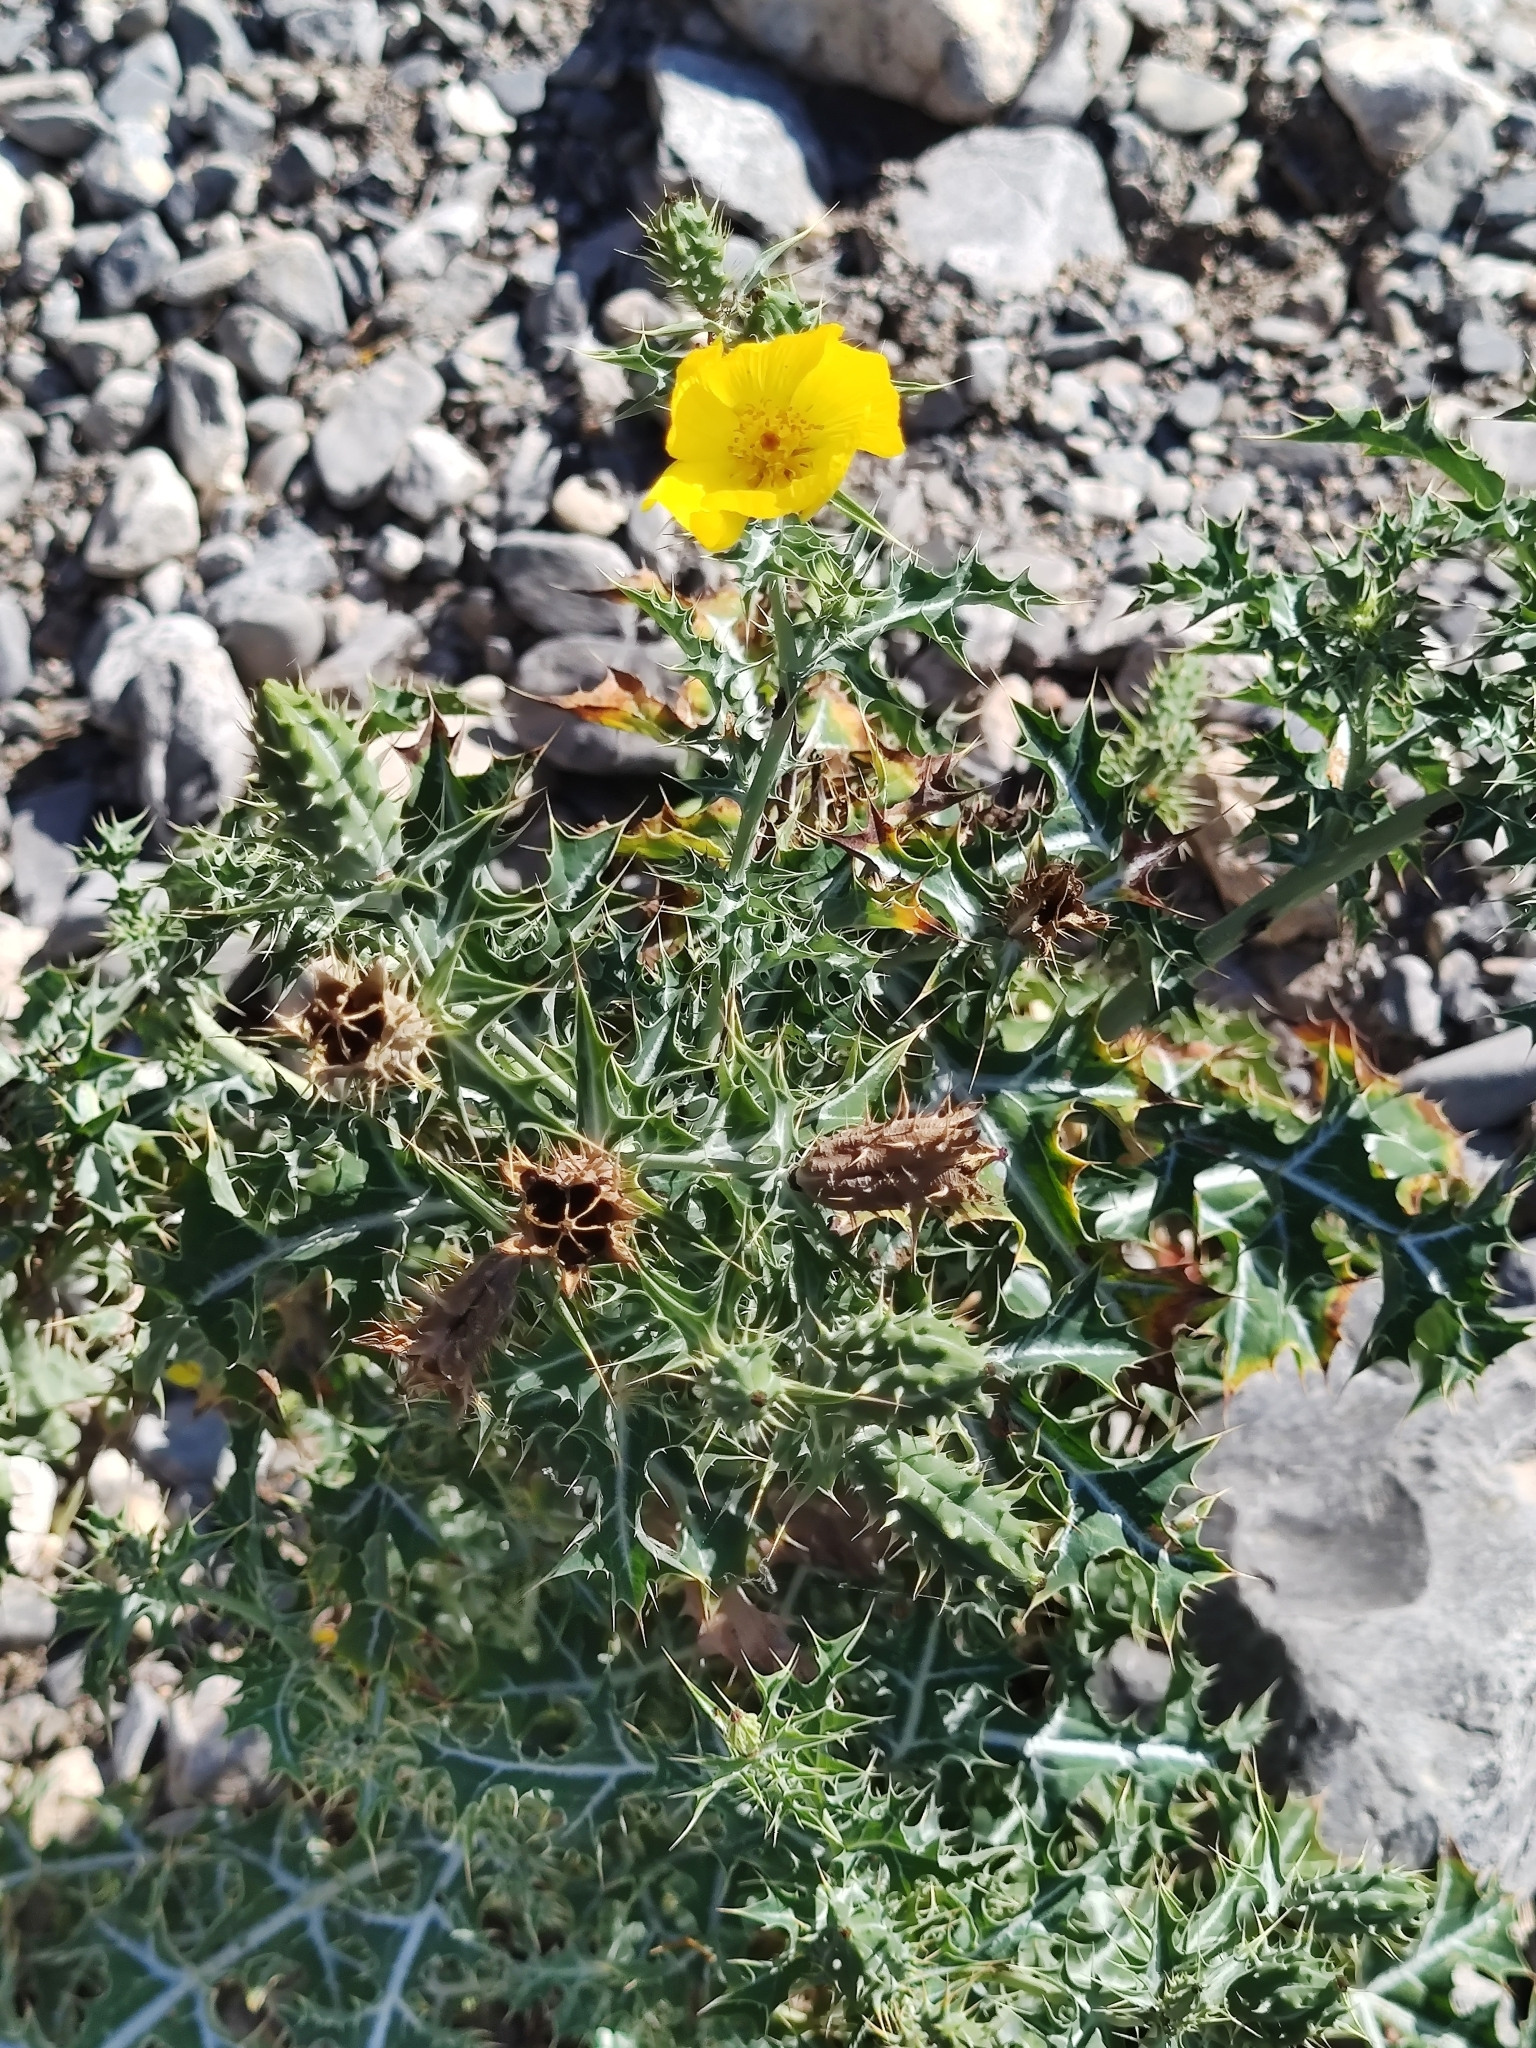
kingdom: Plantae
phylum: Tracheophyta
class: Magnoliopsida
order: Ranunculales
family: Papaveraceae
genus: Argemone
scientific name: Argemone mexicana
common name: Mexican poppy
